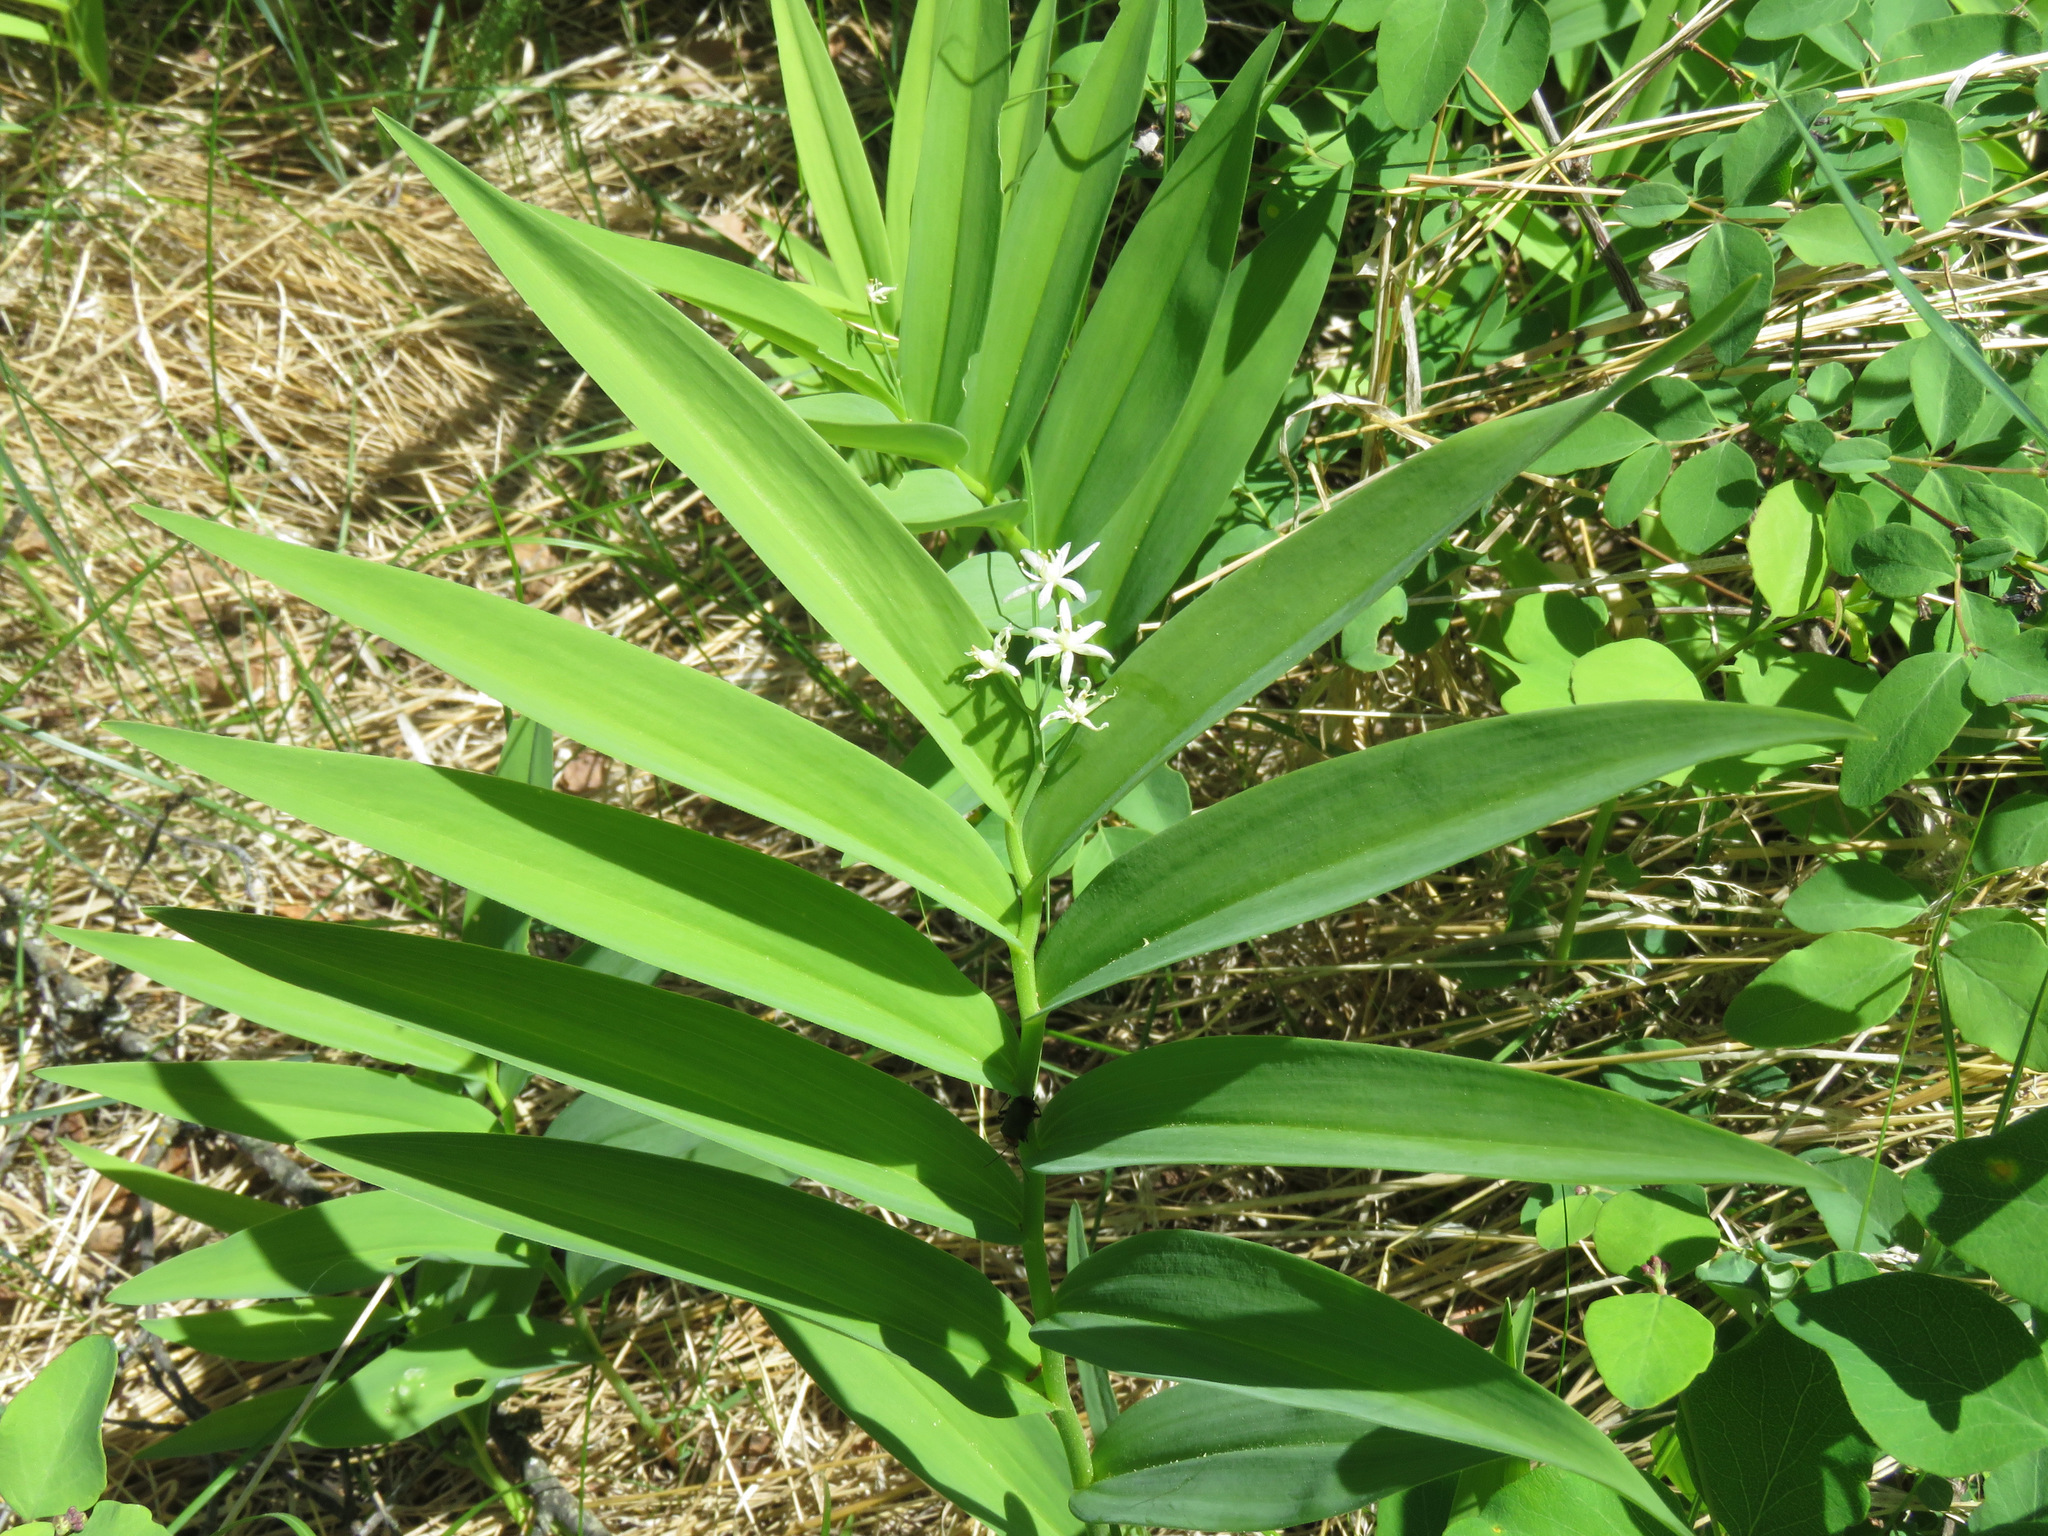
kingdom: Plantae
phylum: Tracheophyta
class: Liliopsida
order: Asparagales
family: Asparagaceae
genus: Maianthemum
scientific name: Maianthemum stellatum
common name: Little false solomon's seal
